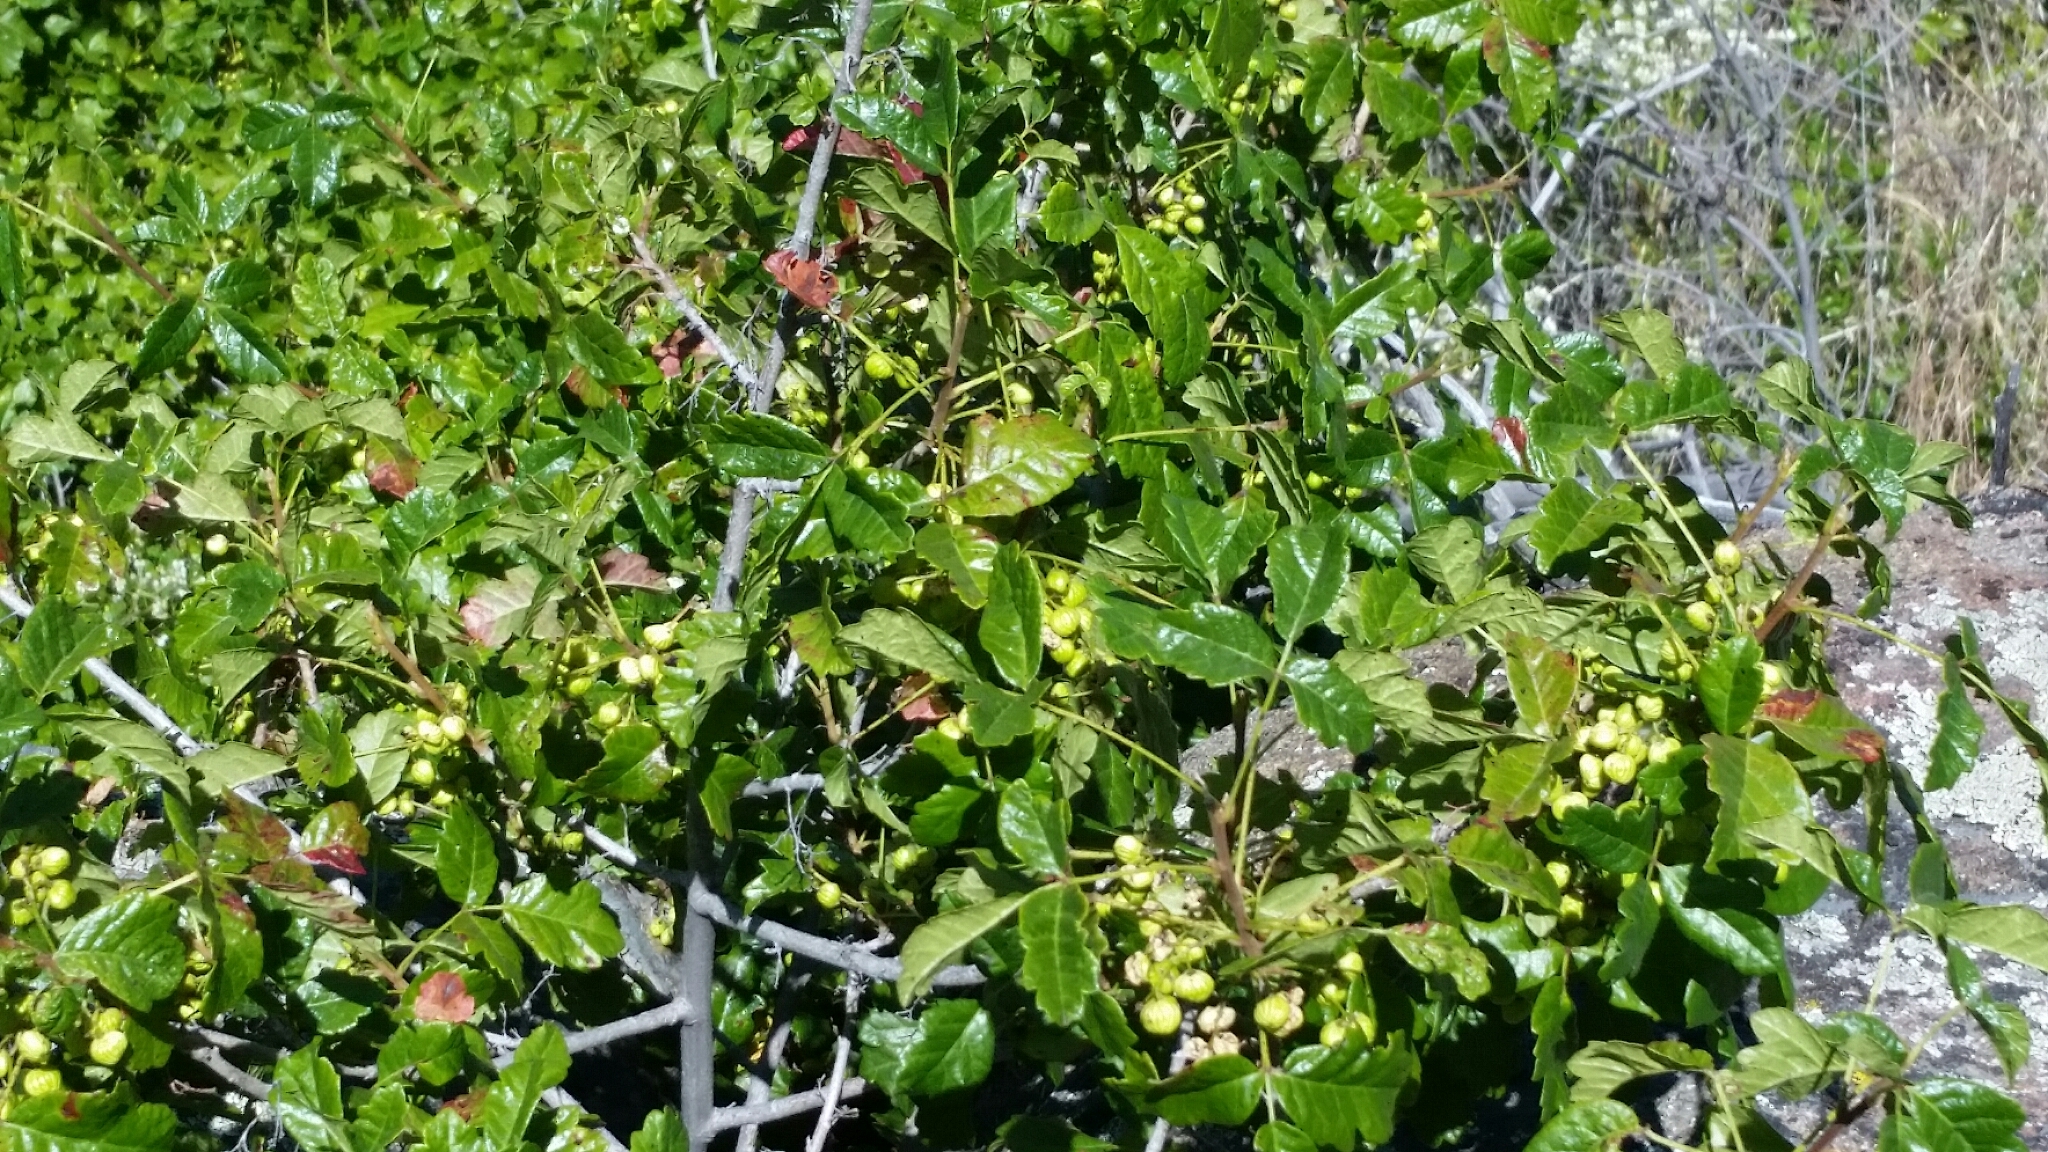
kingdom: Plantae
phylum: Tracheophyta
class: Magnoliopsida
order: Sapindales
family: Anacardiaceae
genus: Toxicodendron
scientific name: Toxicodendron diversilobum
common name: Pacific poison-oak
